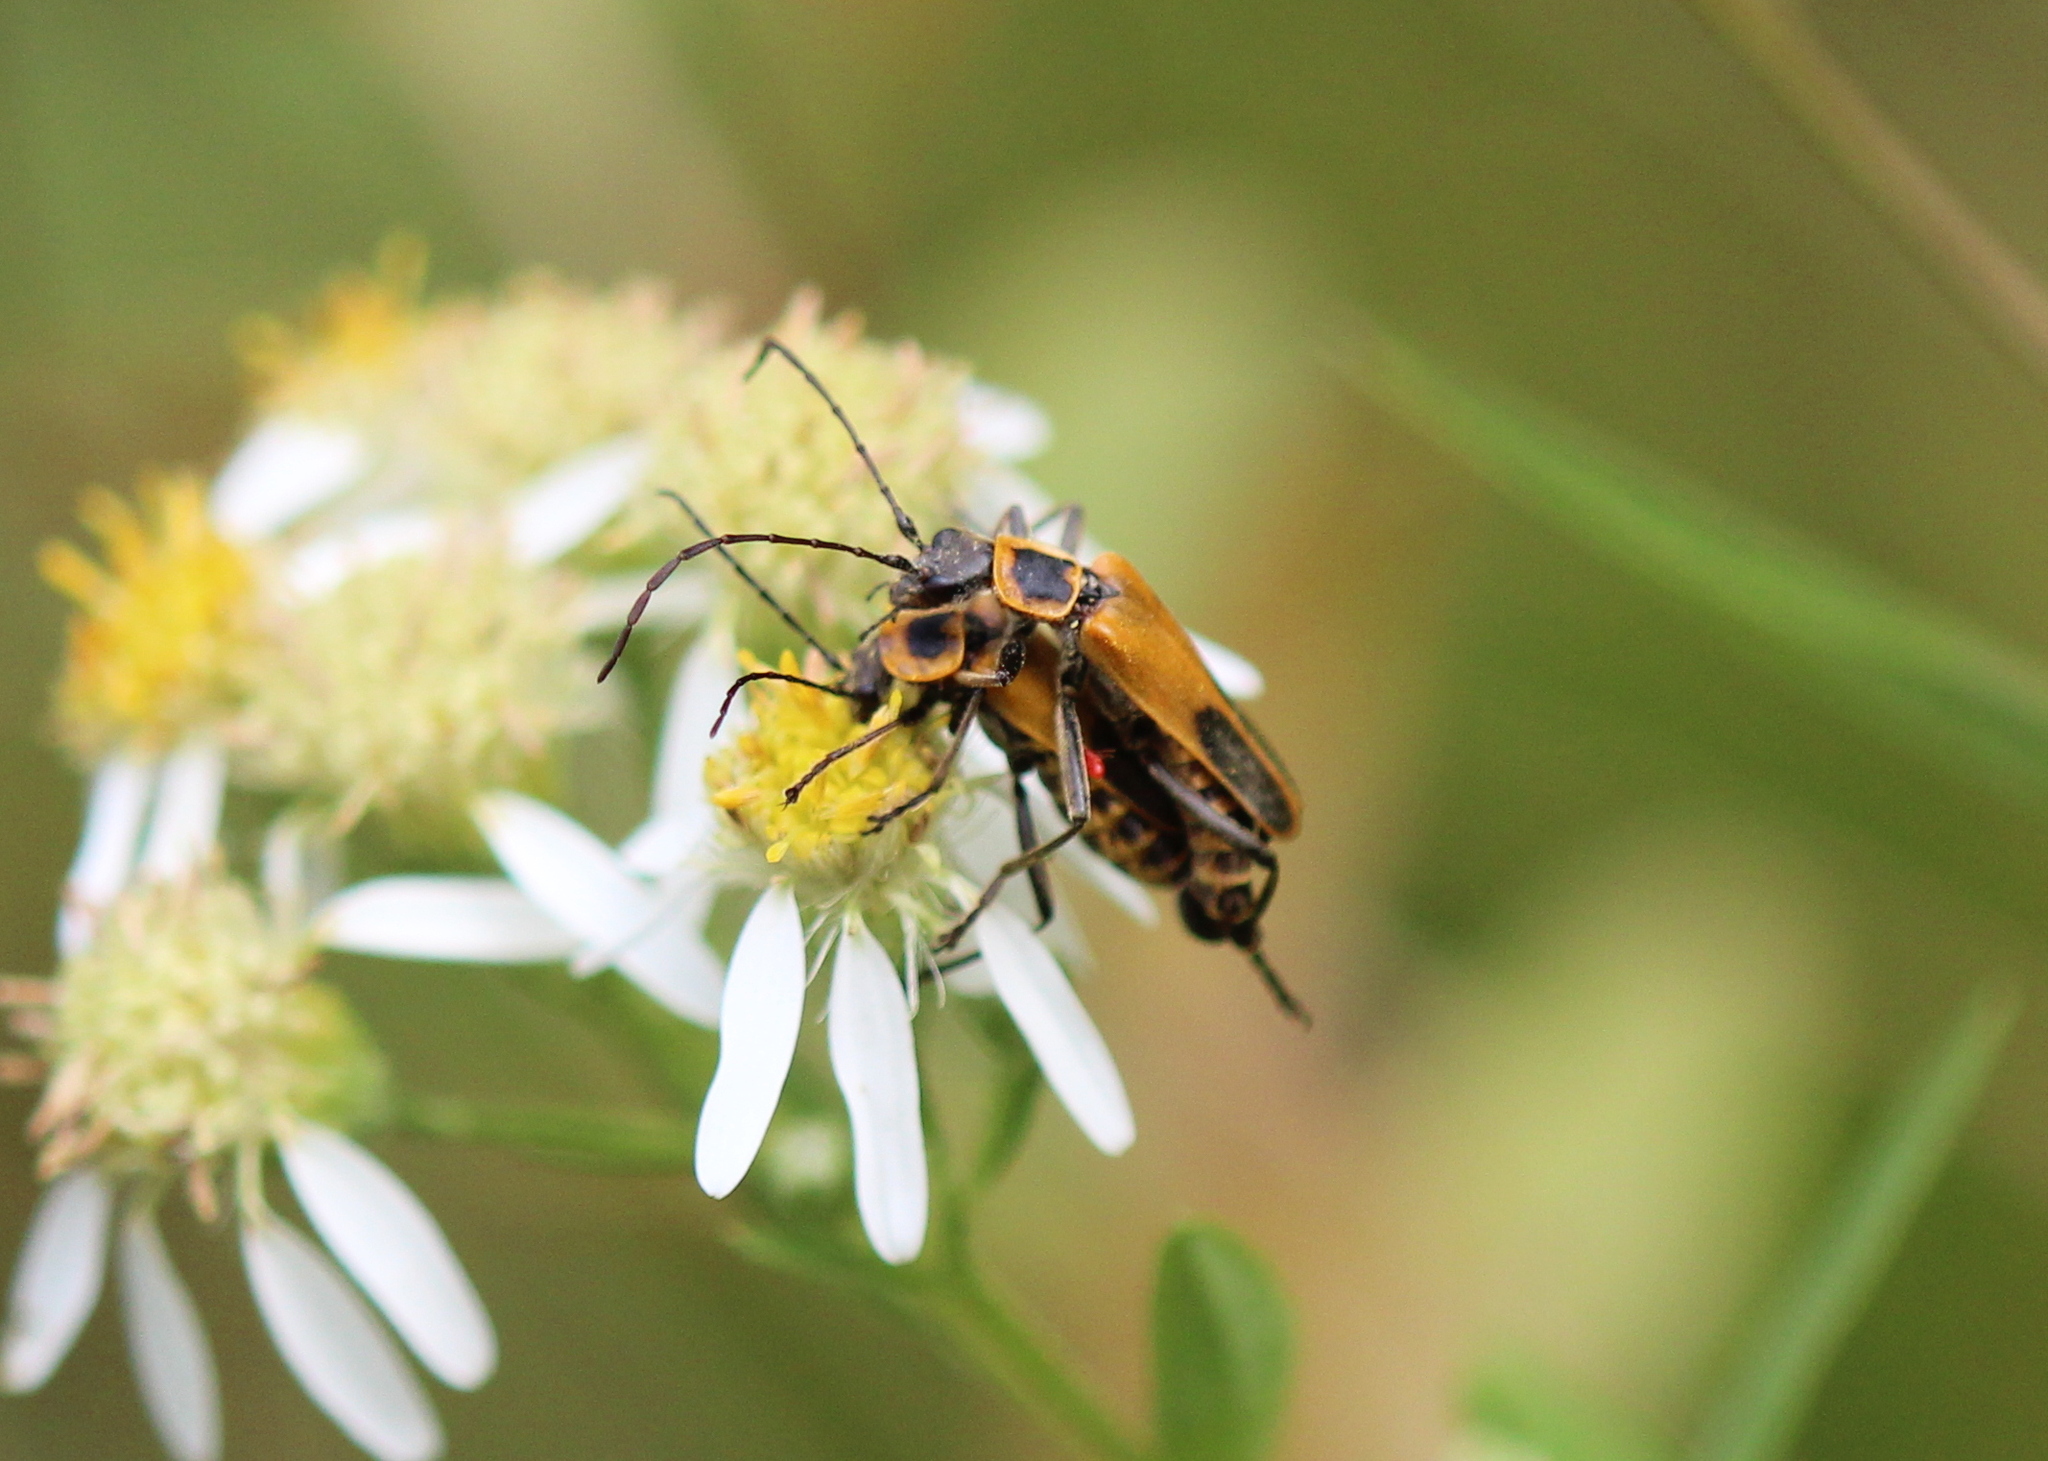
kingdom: Animalia
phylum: Arthropoda
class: Insecta
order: Coleoptera
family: Cantharidae
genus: Chauliognathus
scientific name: Chauliognathus pensylvanicus
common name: Goldenrod soldier beetle
